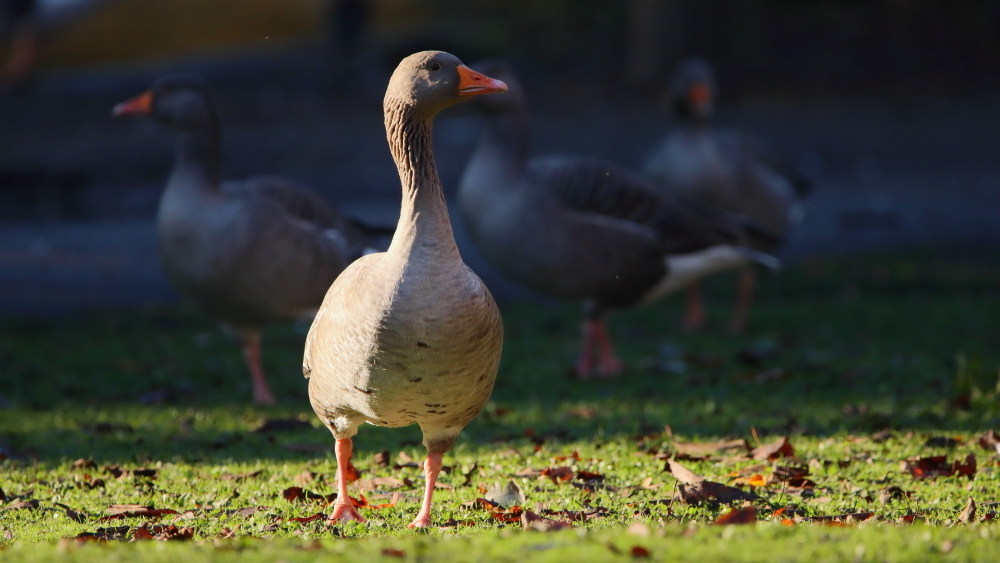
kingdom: Animalia
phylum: Chordata
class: Aves
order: Anseriformes
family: Anatidae
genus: Anser
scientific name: Anser anser
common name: Greylag goose
